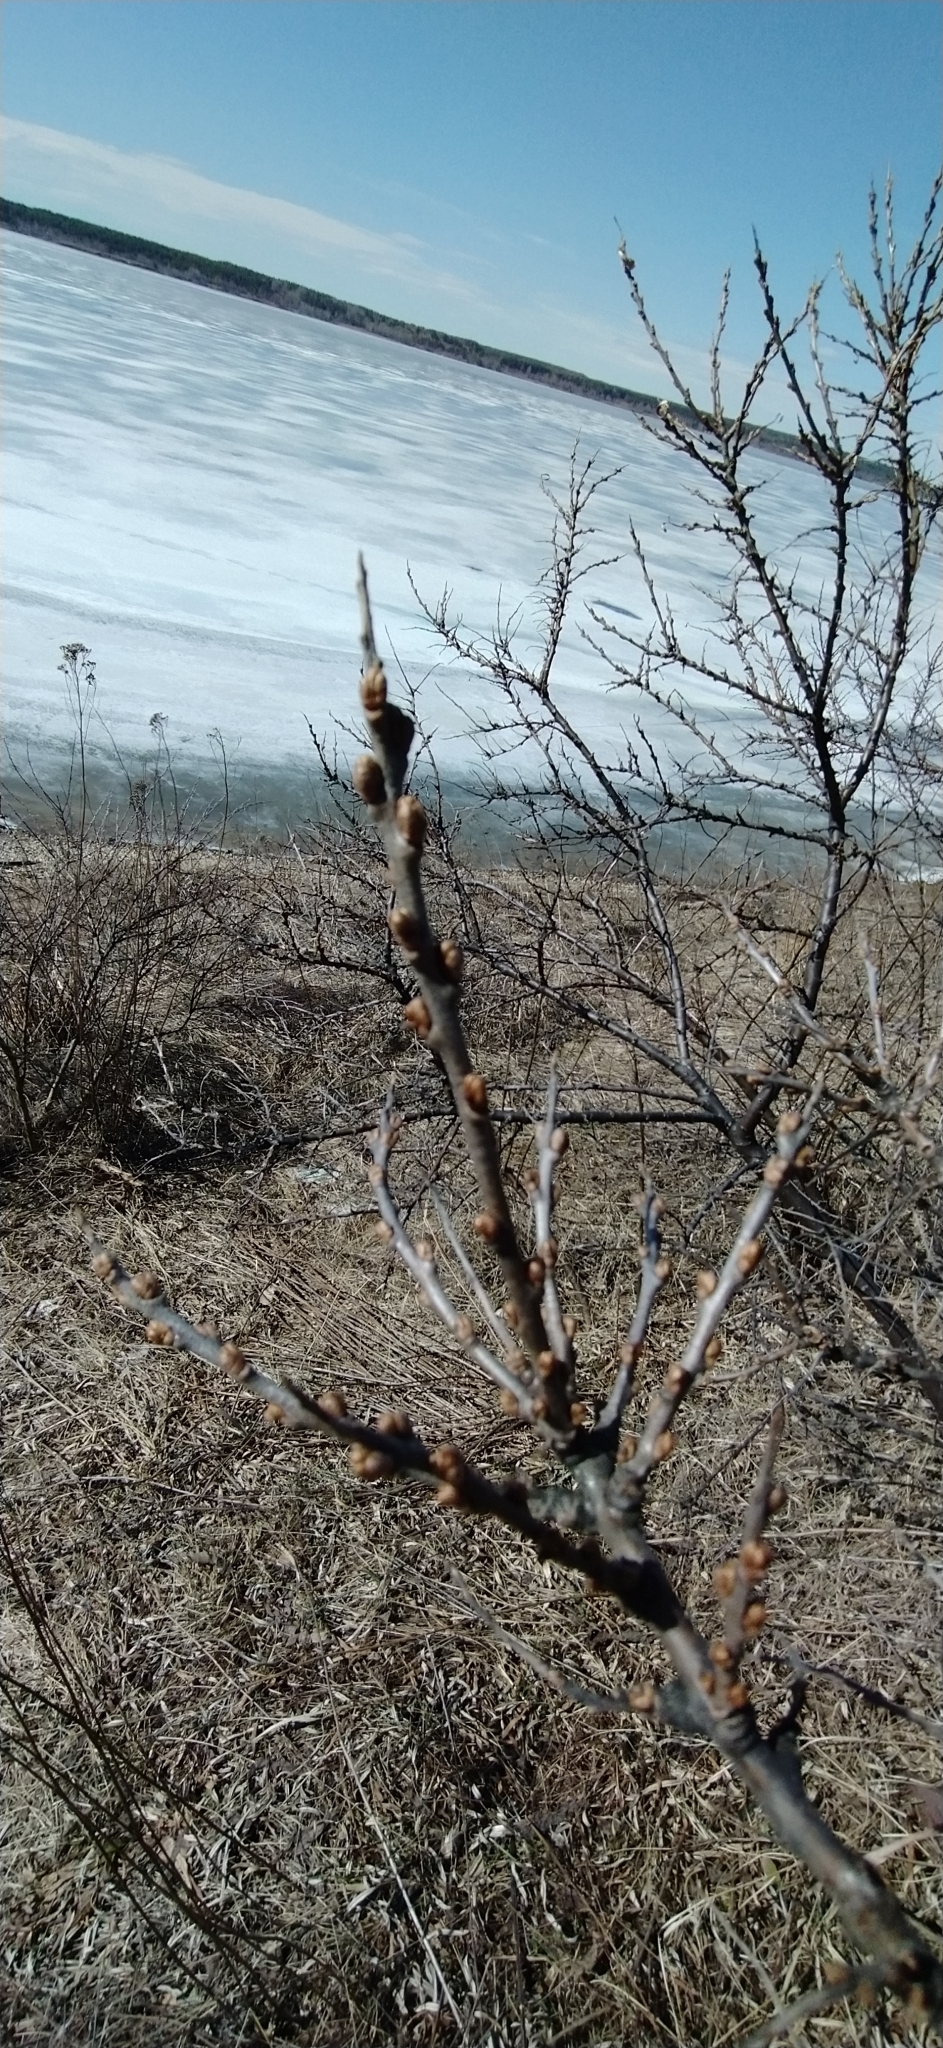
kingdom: Plantae
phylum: Tracheophyta
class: Magnoliopsida
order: Rosales
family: Elaeagnaceae
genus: Hippophae
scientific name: Hippophae rhamnoides
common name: Sea-buckthorn
